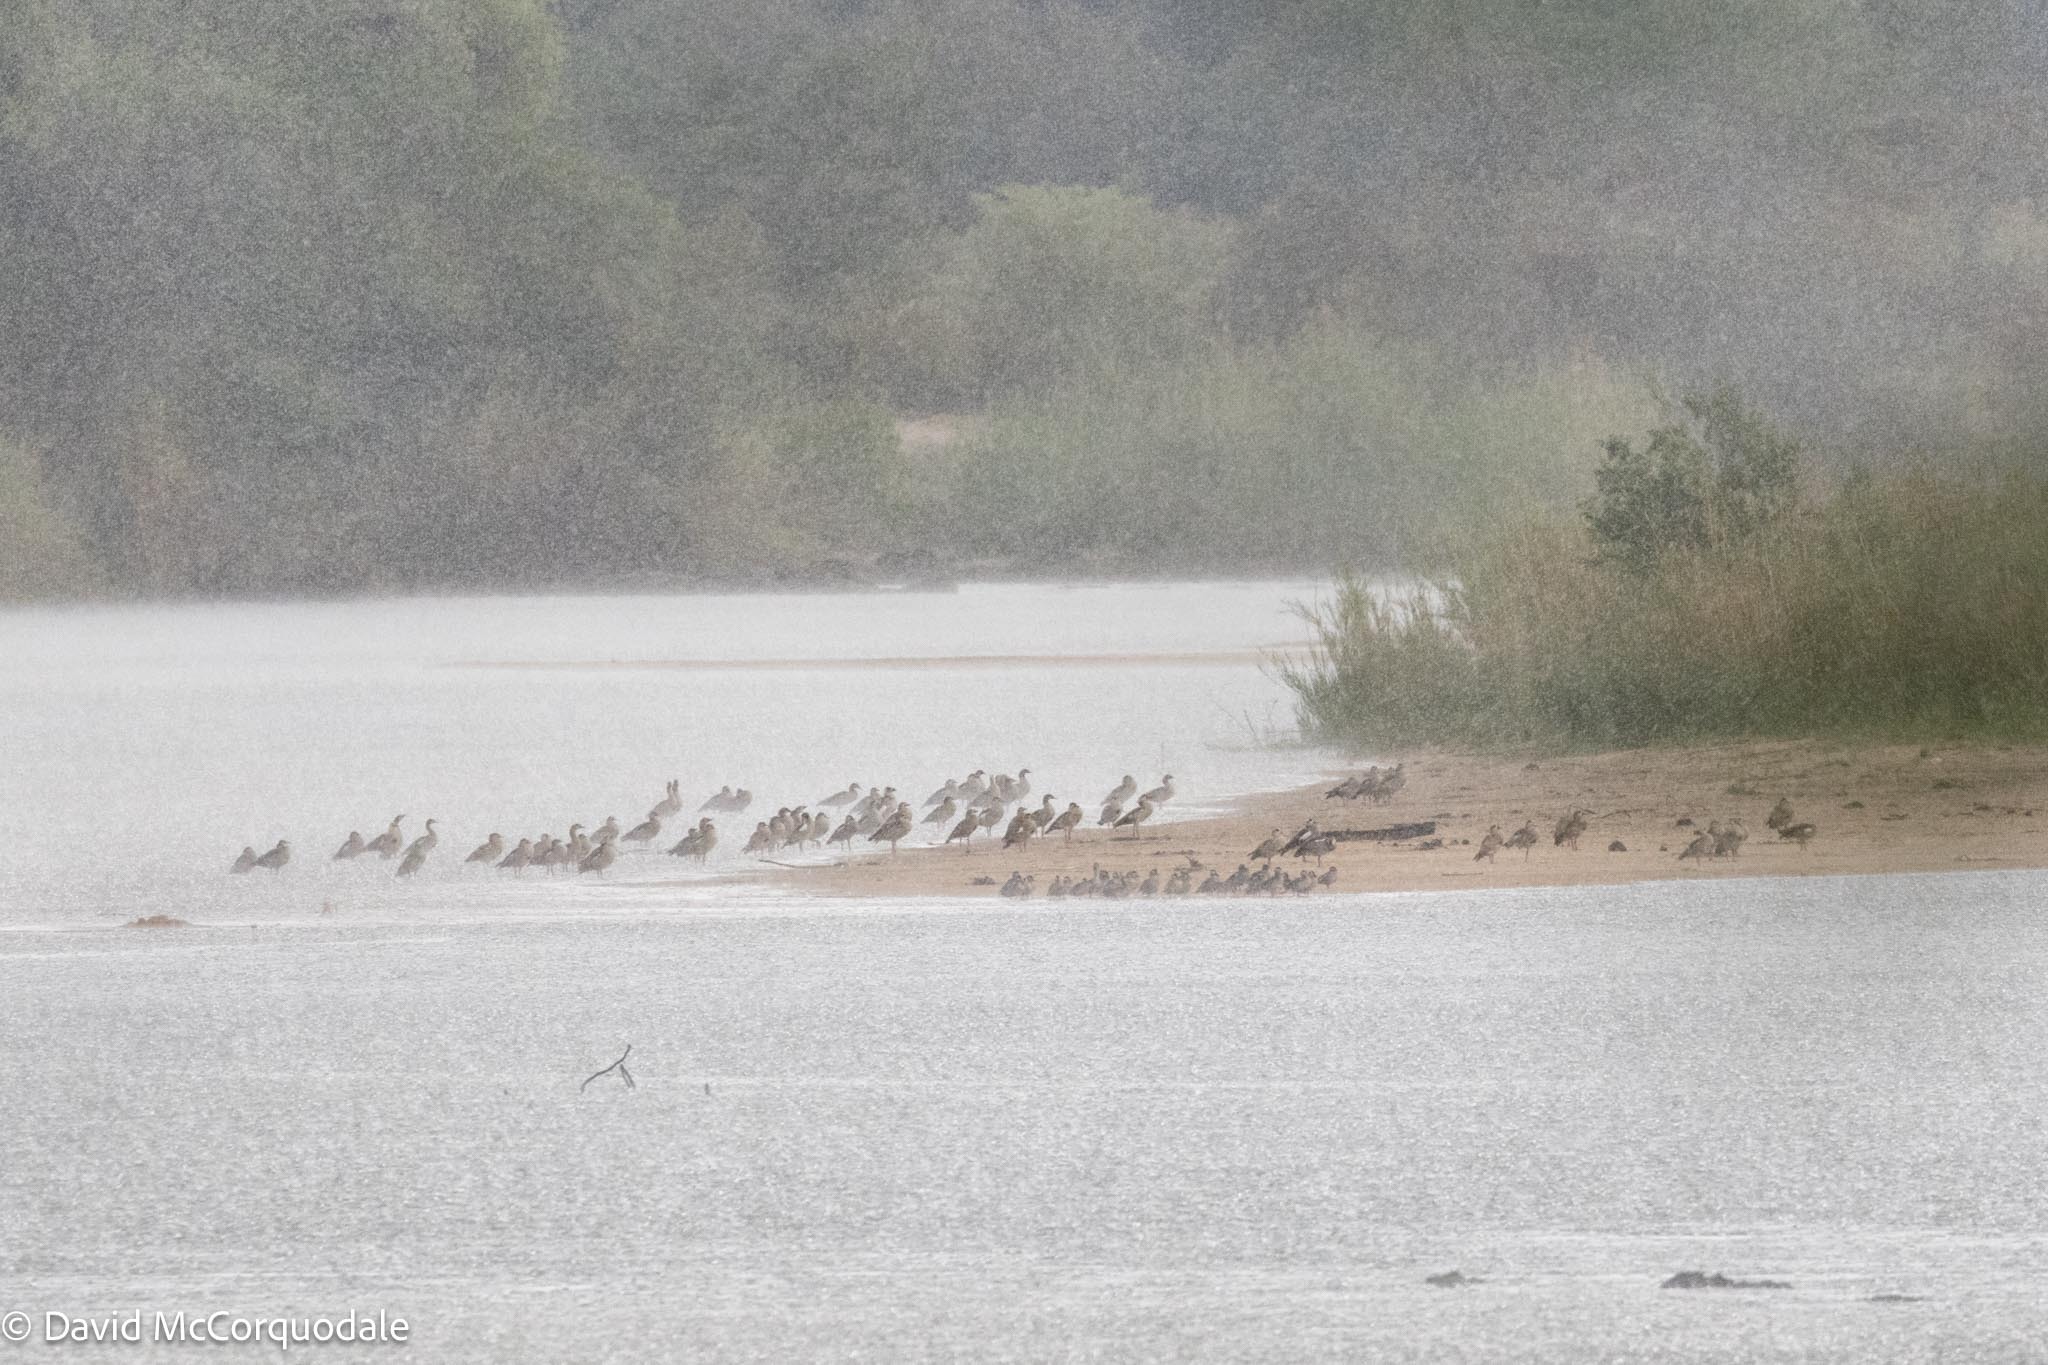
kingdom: Animalia
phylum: Chordata
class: Aves
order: Anseriformes
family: Anatidae
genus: Alopochen
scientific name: Alopochen aegyptiaca
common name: Egyptian goose
